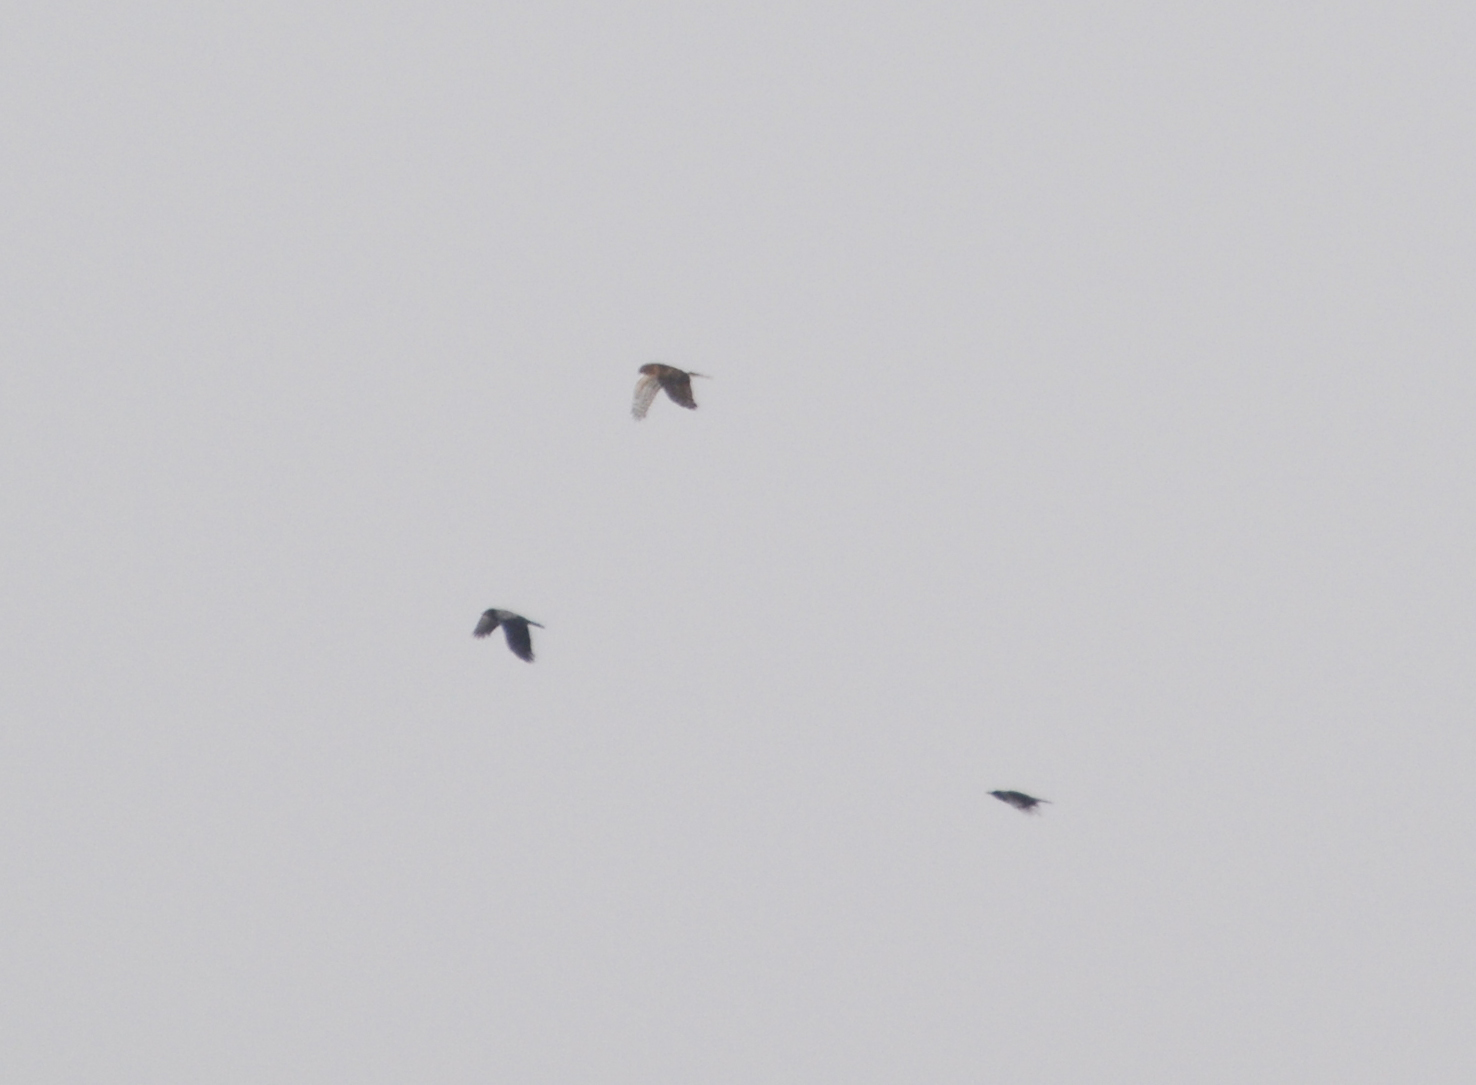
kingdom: Animalia
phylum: Chordata
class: Aves
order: Accipitriformes
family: Accipitridae
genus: Circus
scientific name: Circus cyaneus
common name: Hen harrier
